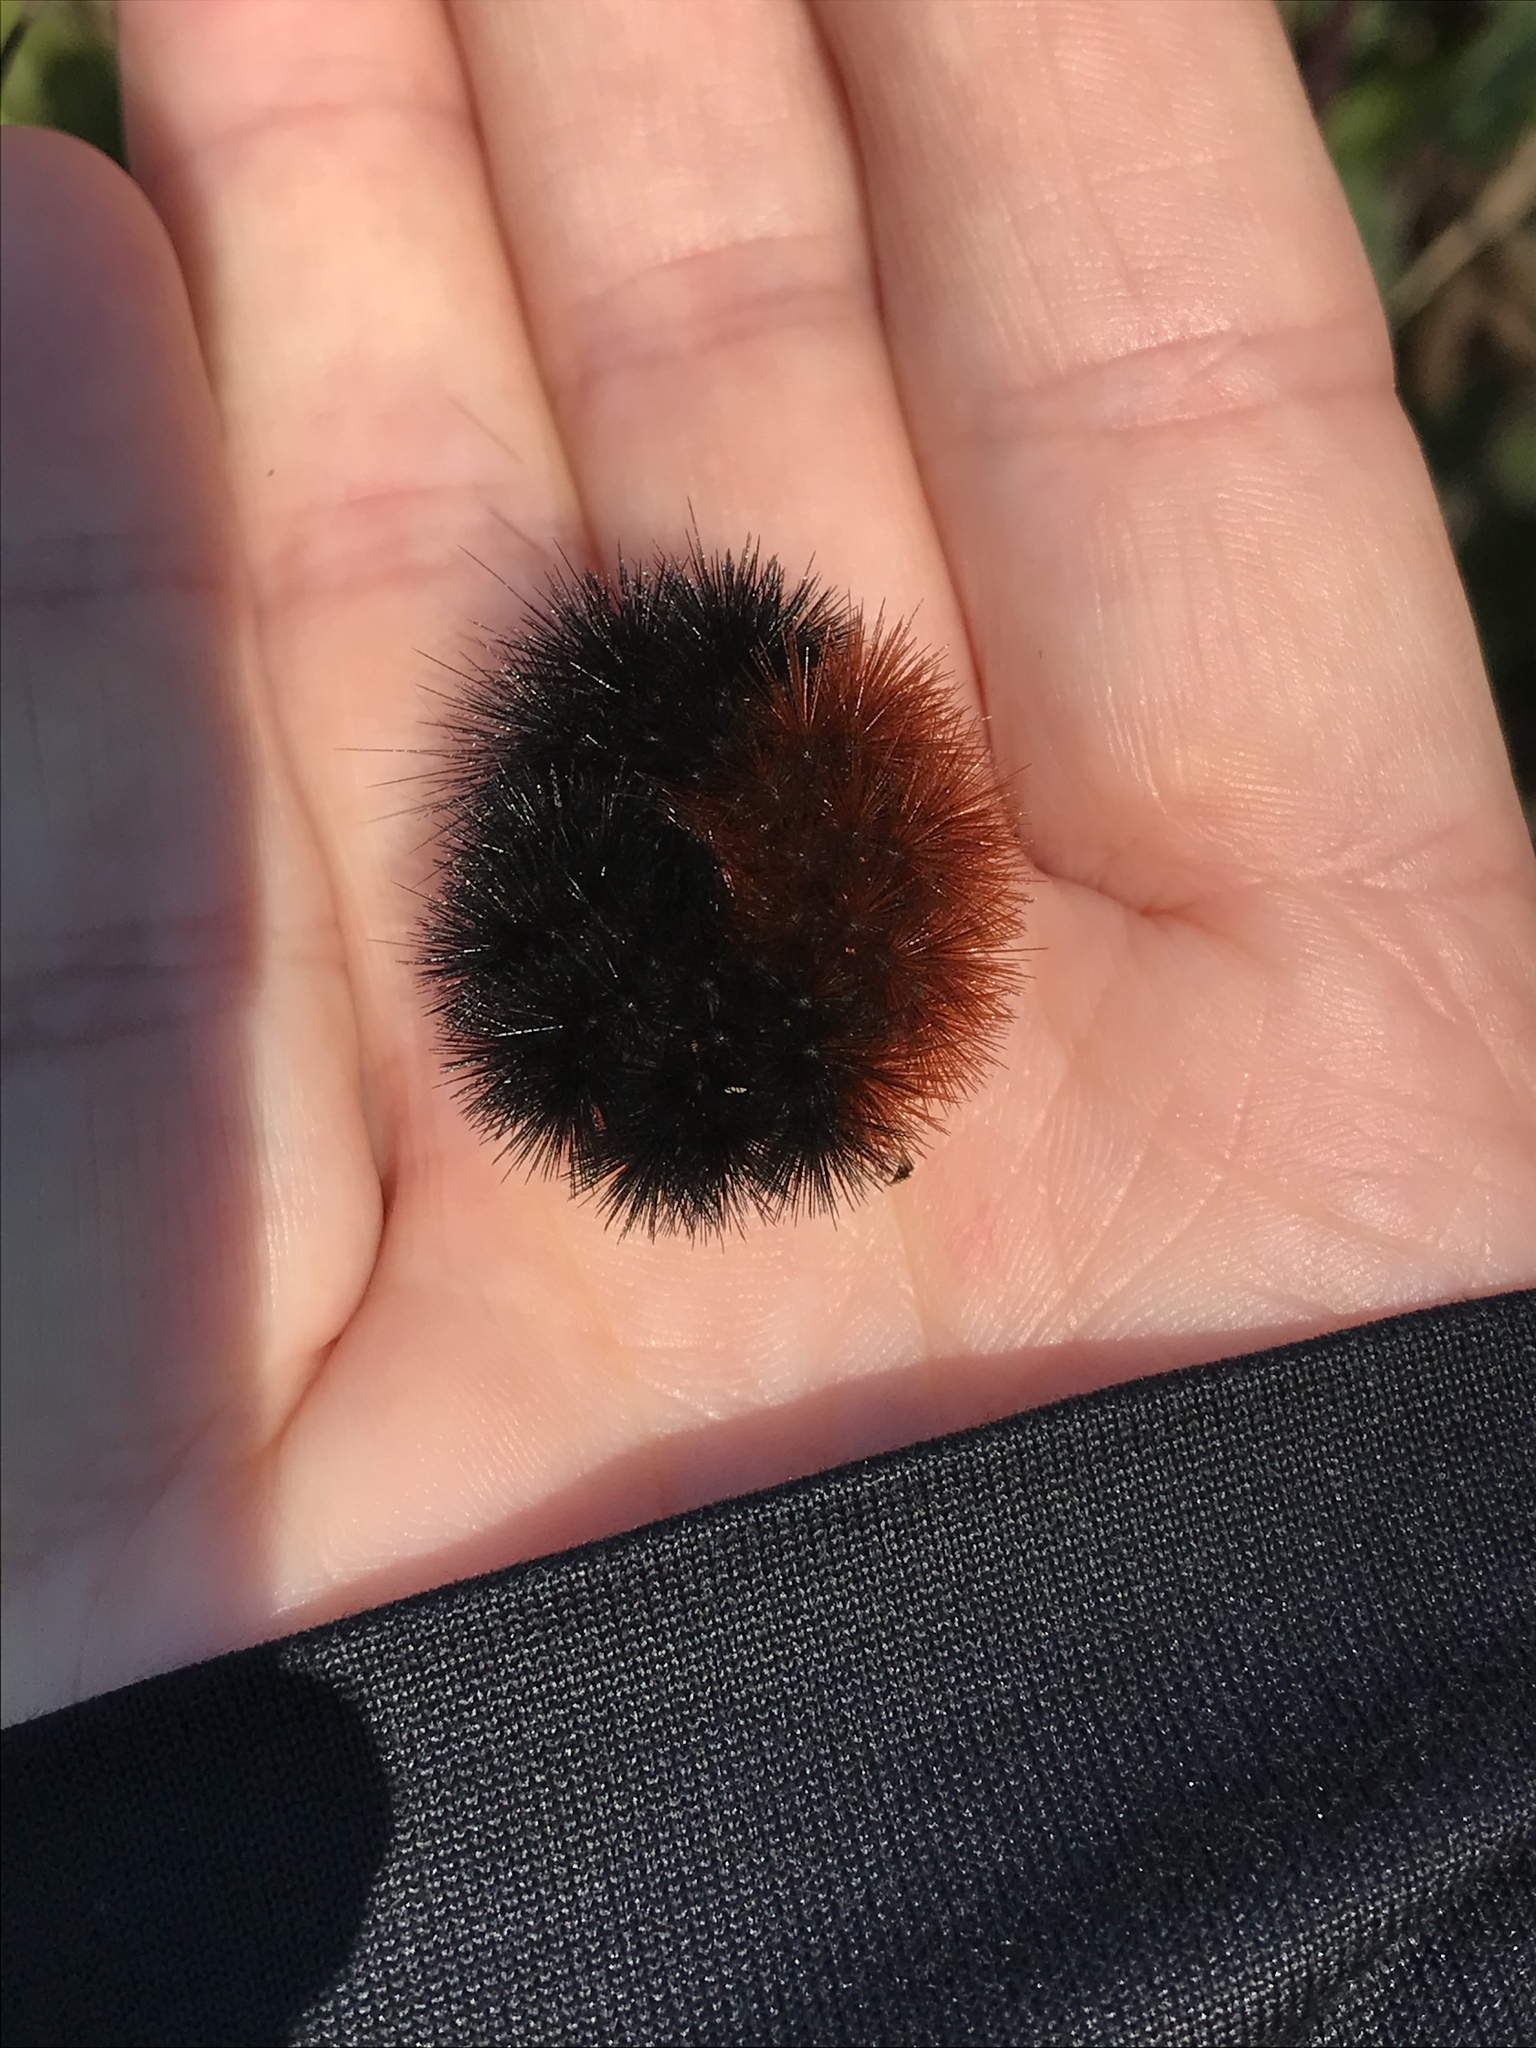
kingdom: Animalia
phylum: Arthropoda
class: Insecta
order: Lepidoptera
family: Erebidae
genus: Pyrrharctia
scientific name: Pyrrharctia isabella
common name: Isabella tiger moth
